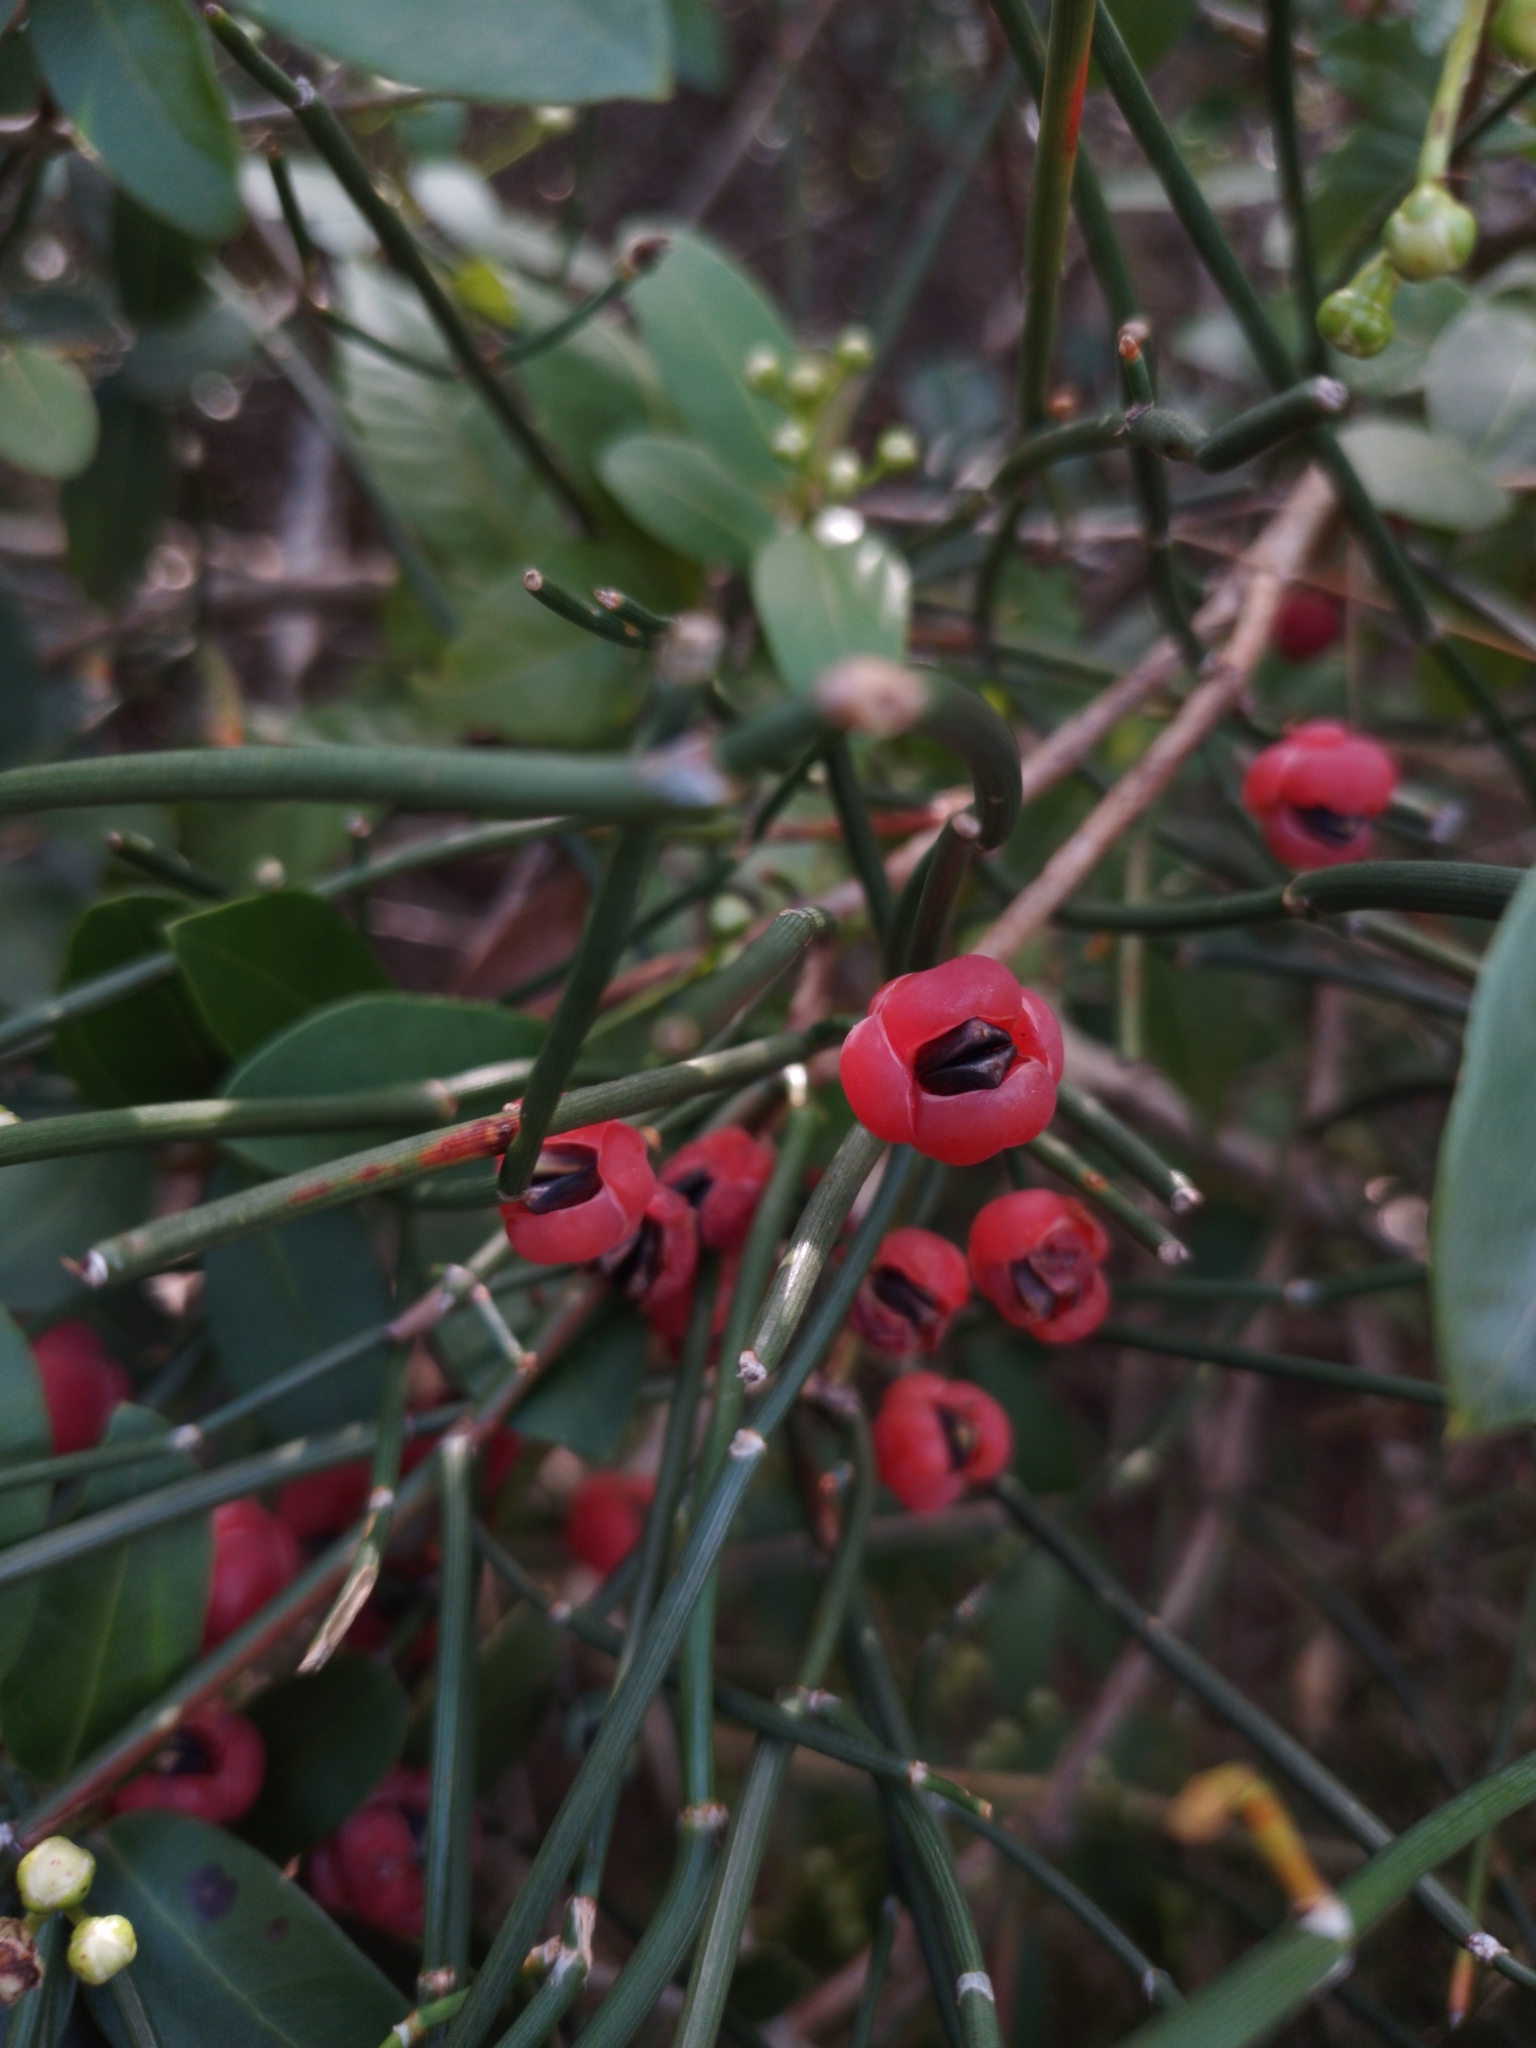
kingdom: Plantae
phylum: Tracheophyta
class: Gnetopsida
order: Ephedrales
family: Ephedraceae
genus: Ephedra
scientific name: Ephedra tweedieana
